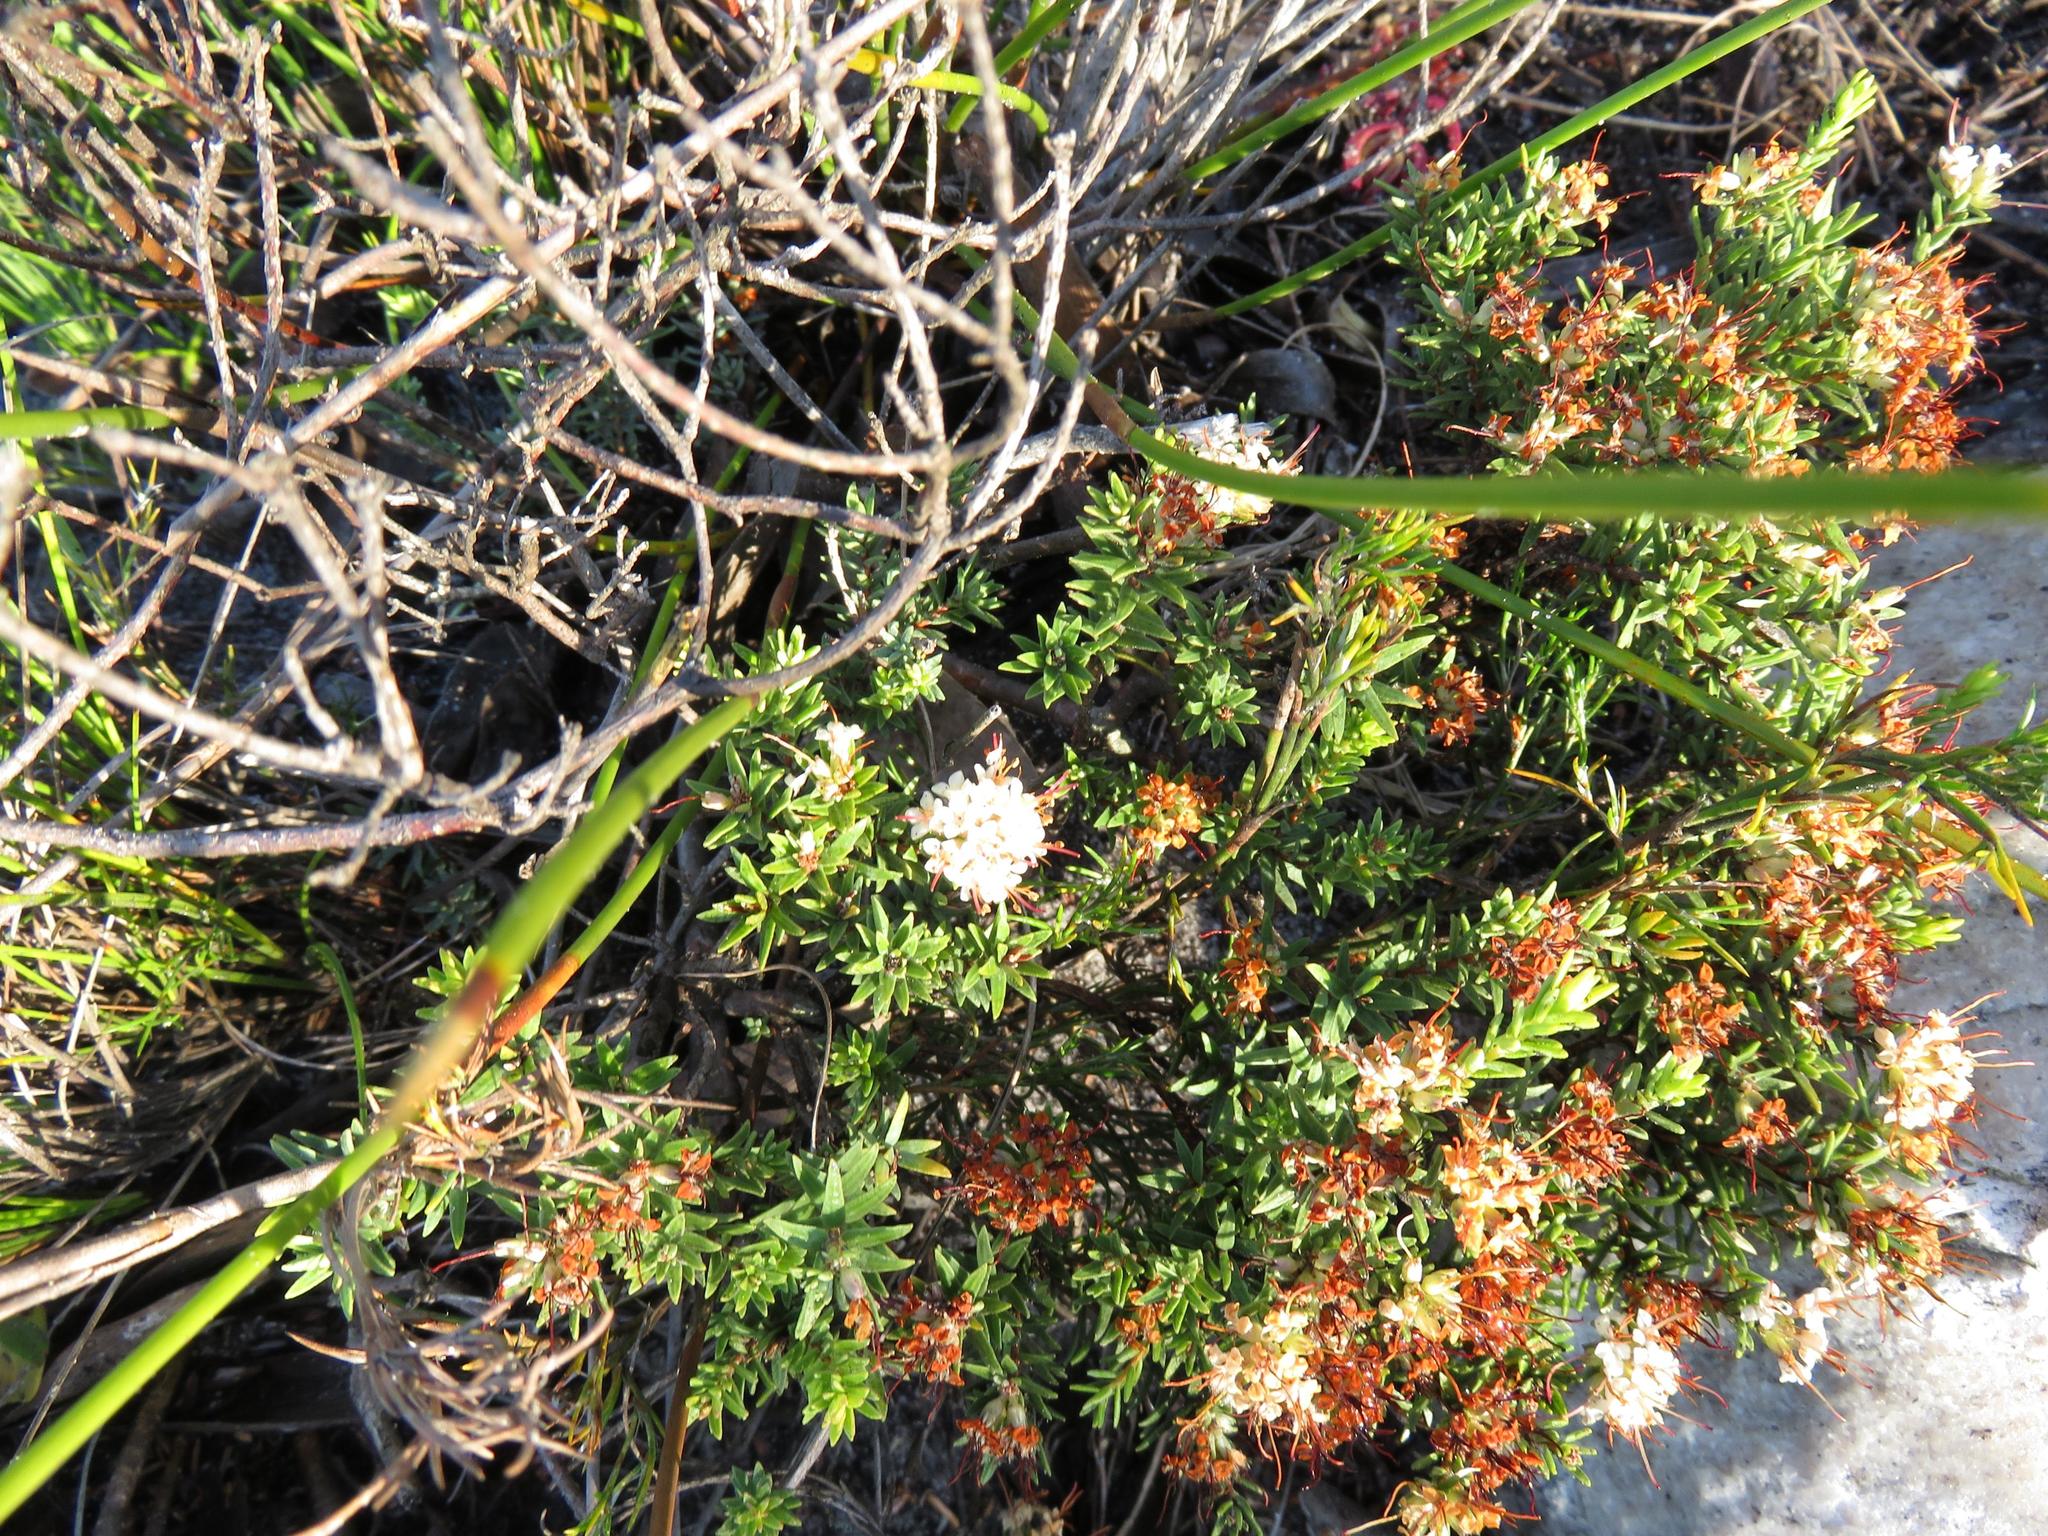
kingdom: Plantae
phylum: Tracheophyta
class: Magnoliopsida
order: Sapindales
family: Rutaceae
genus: Macrostylis
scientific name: Macrostylis villosa
